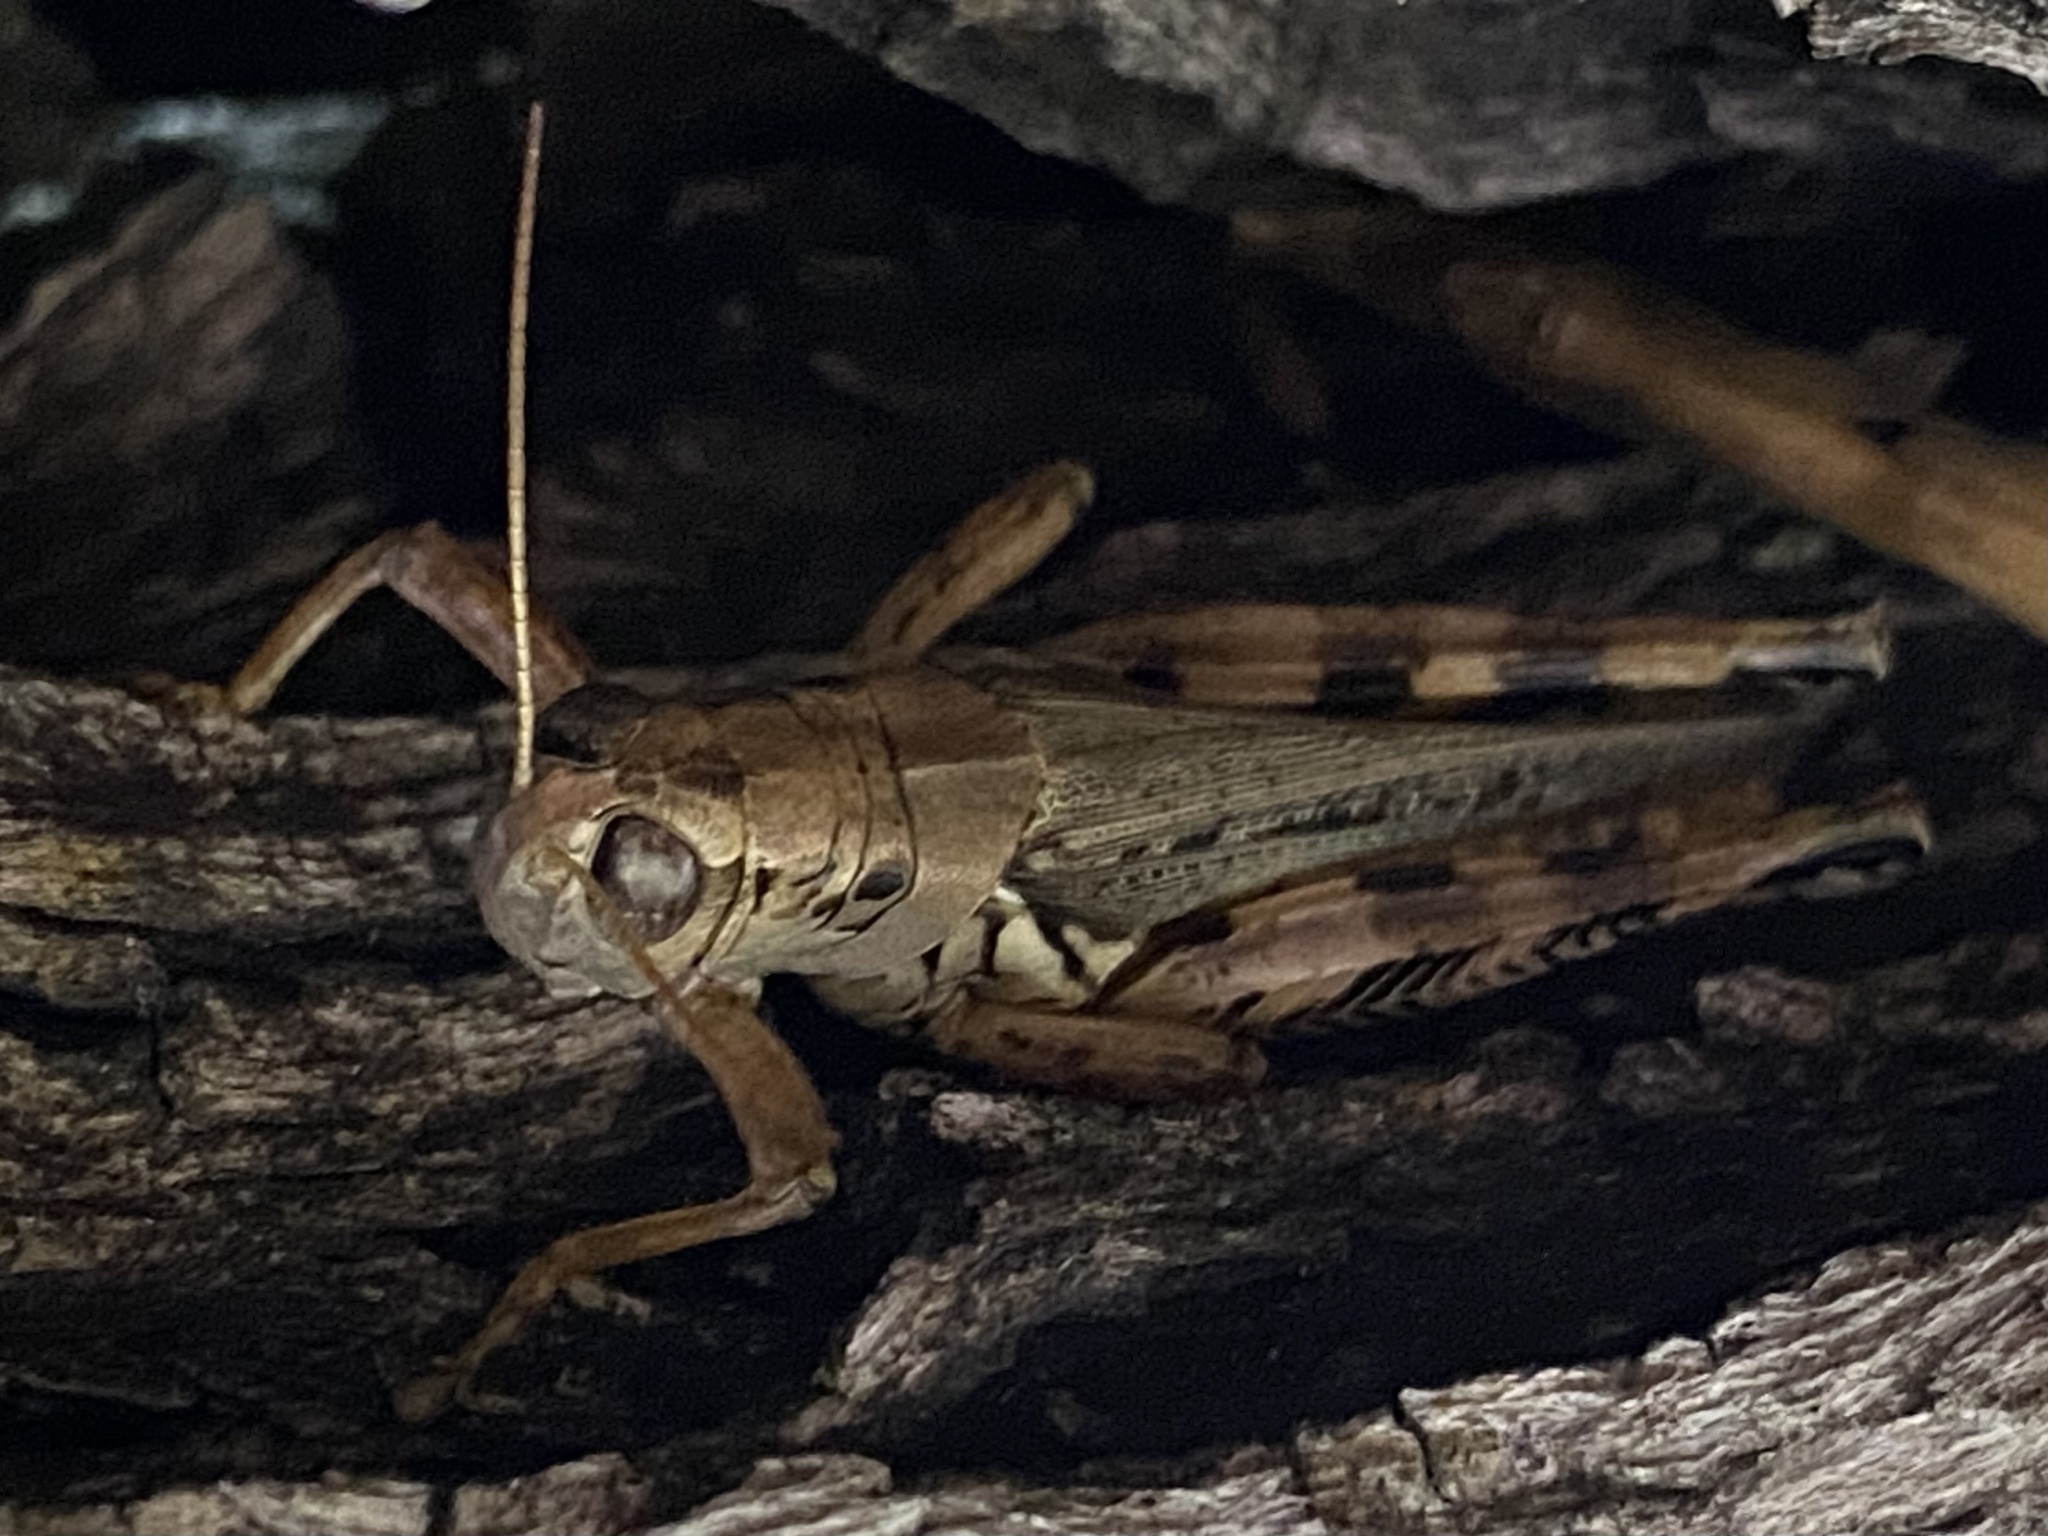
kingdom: Animalia
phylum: Arthropoda
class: Insecta
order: Orthoptera
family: Acrididae
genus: Melanoplus
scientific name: Melanoplus ponderosus
